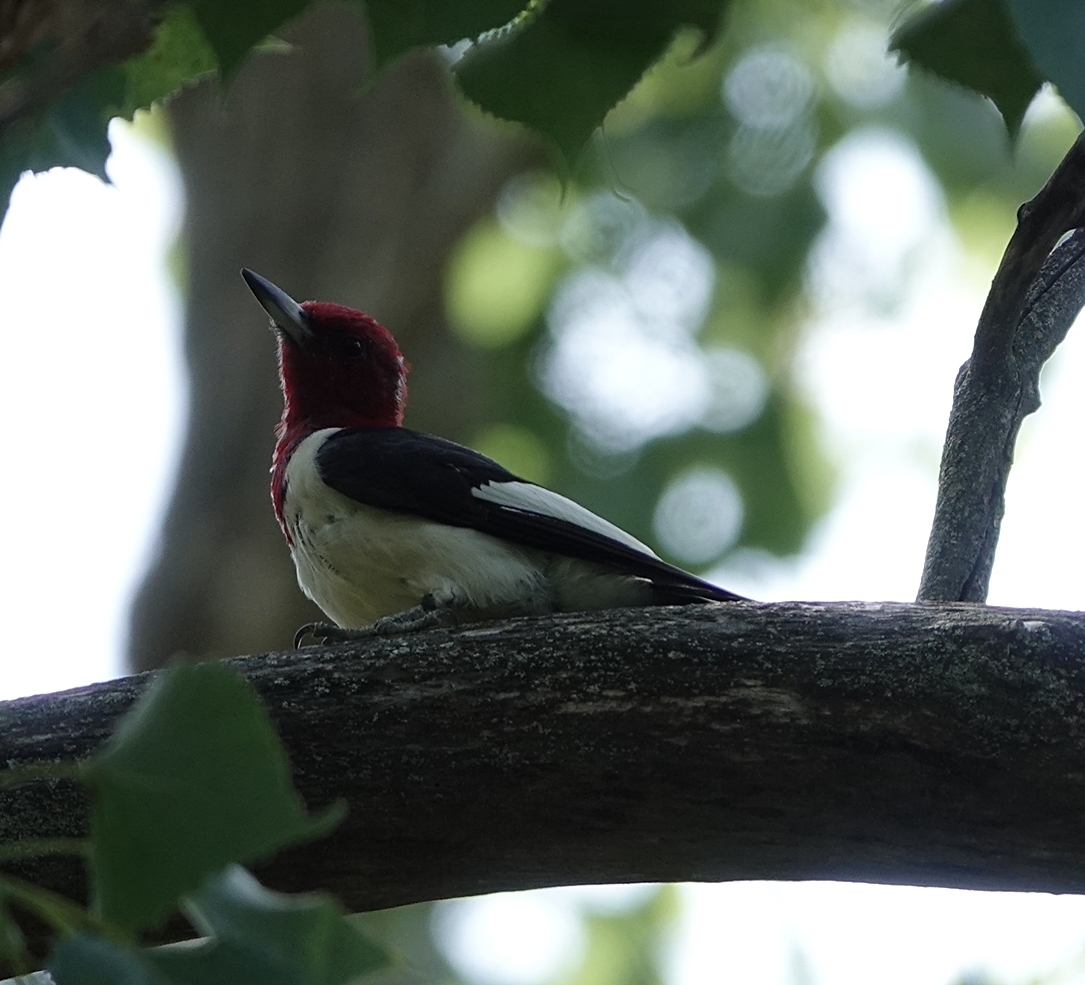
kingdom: Animalia
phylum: Chordata
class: Aves
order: Piciformes
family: Picidae
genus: Melanerpes
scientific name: Melanerpes erythrocephalus
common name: Red-headed woodpecker
